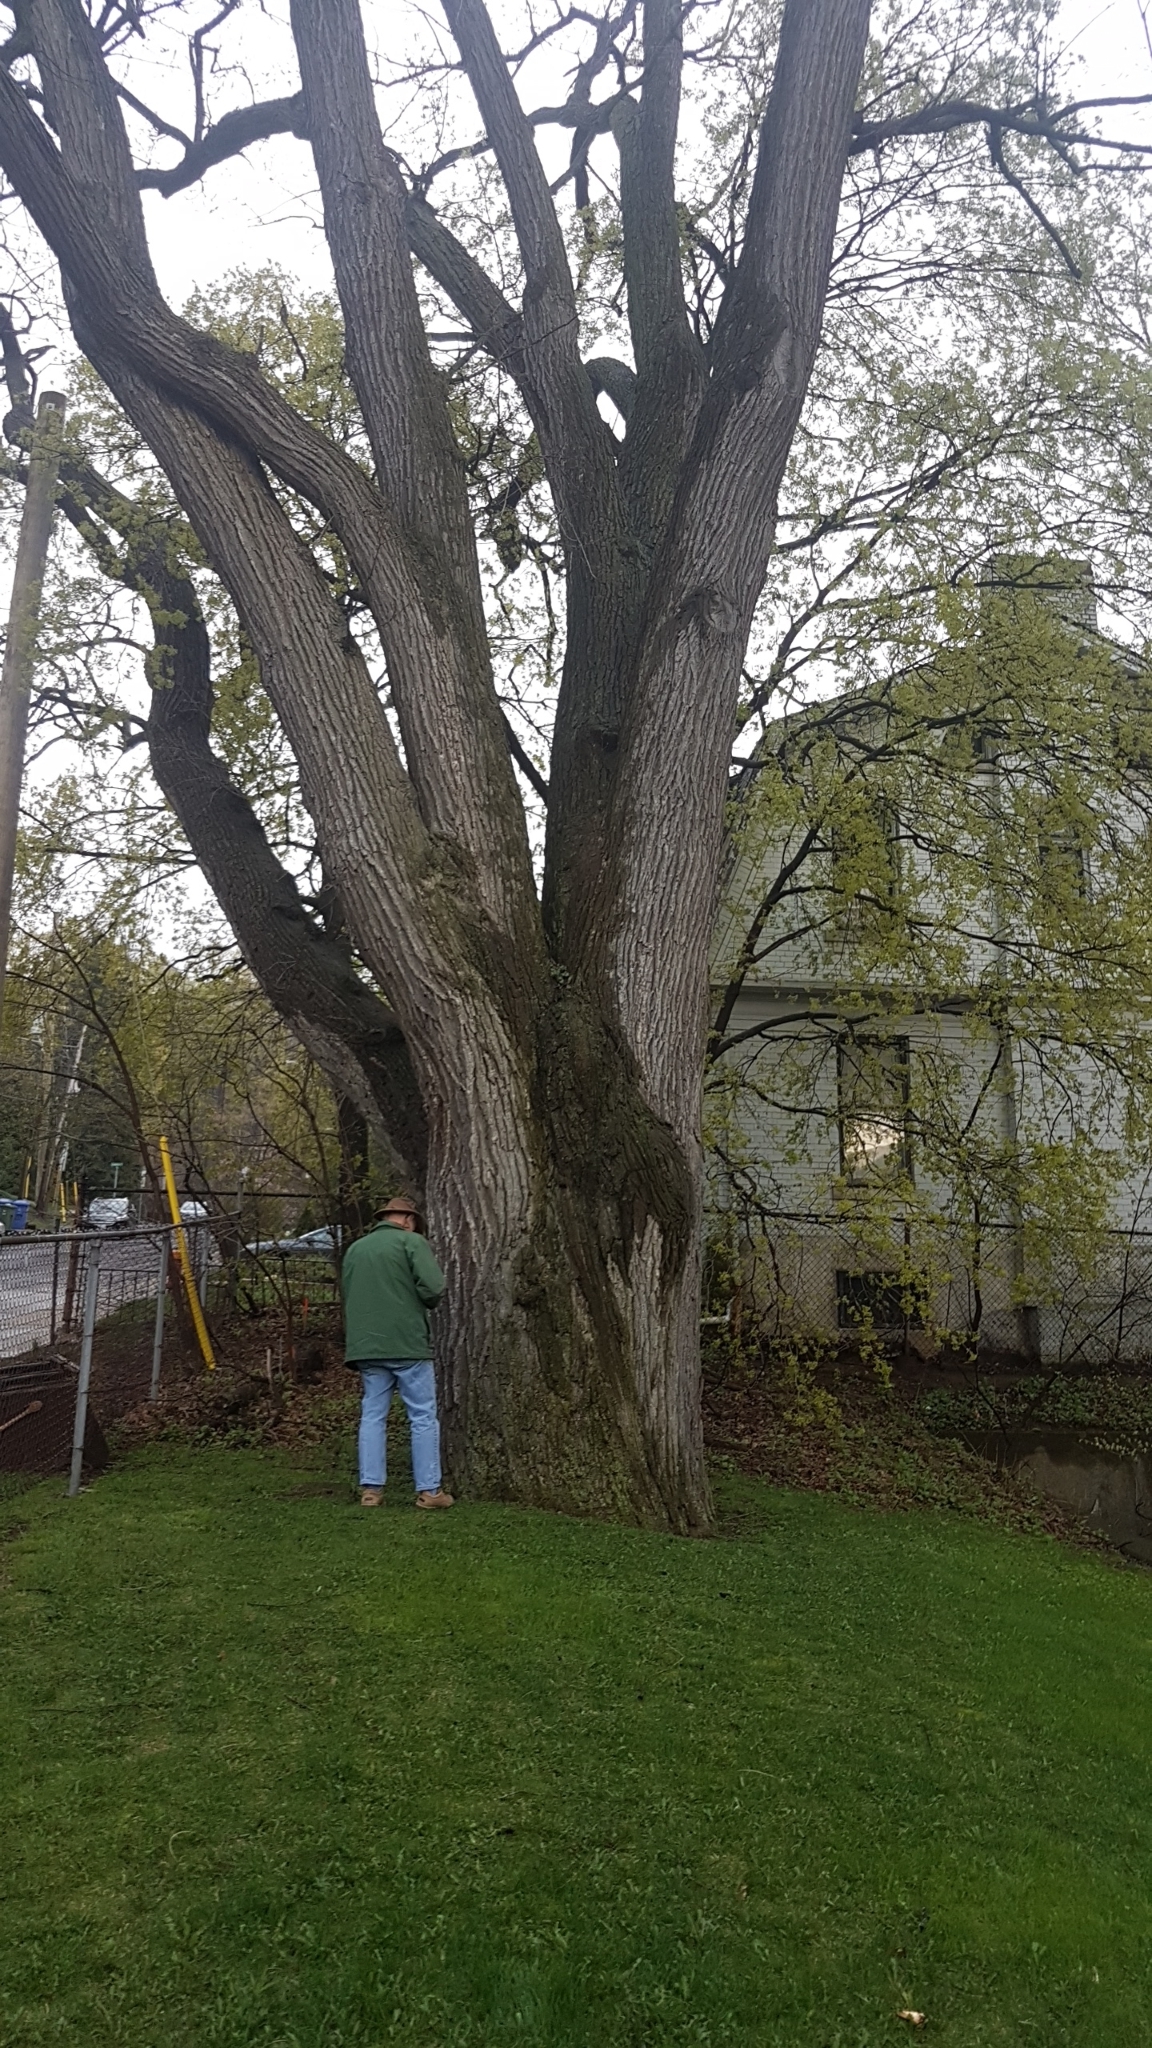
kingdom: Plantae
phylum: Tracheophyta
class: Magnoliopsida
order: Fagales
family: Fagaceae
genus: Quercus
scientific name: Quercus macrocarpa
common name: Bur oak
